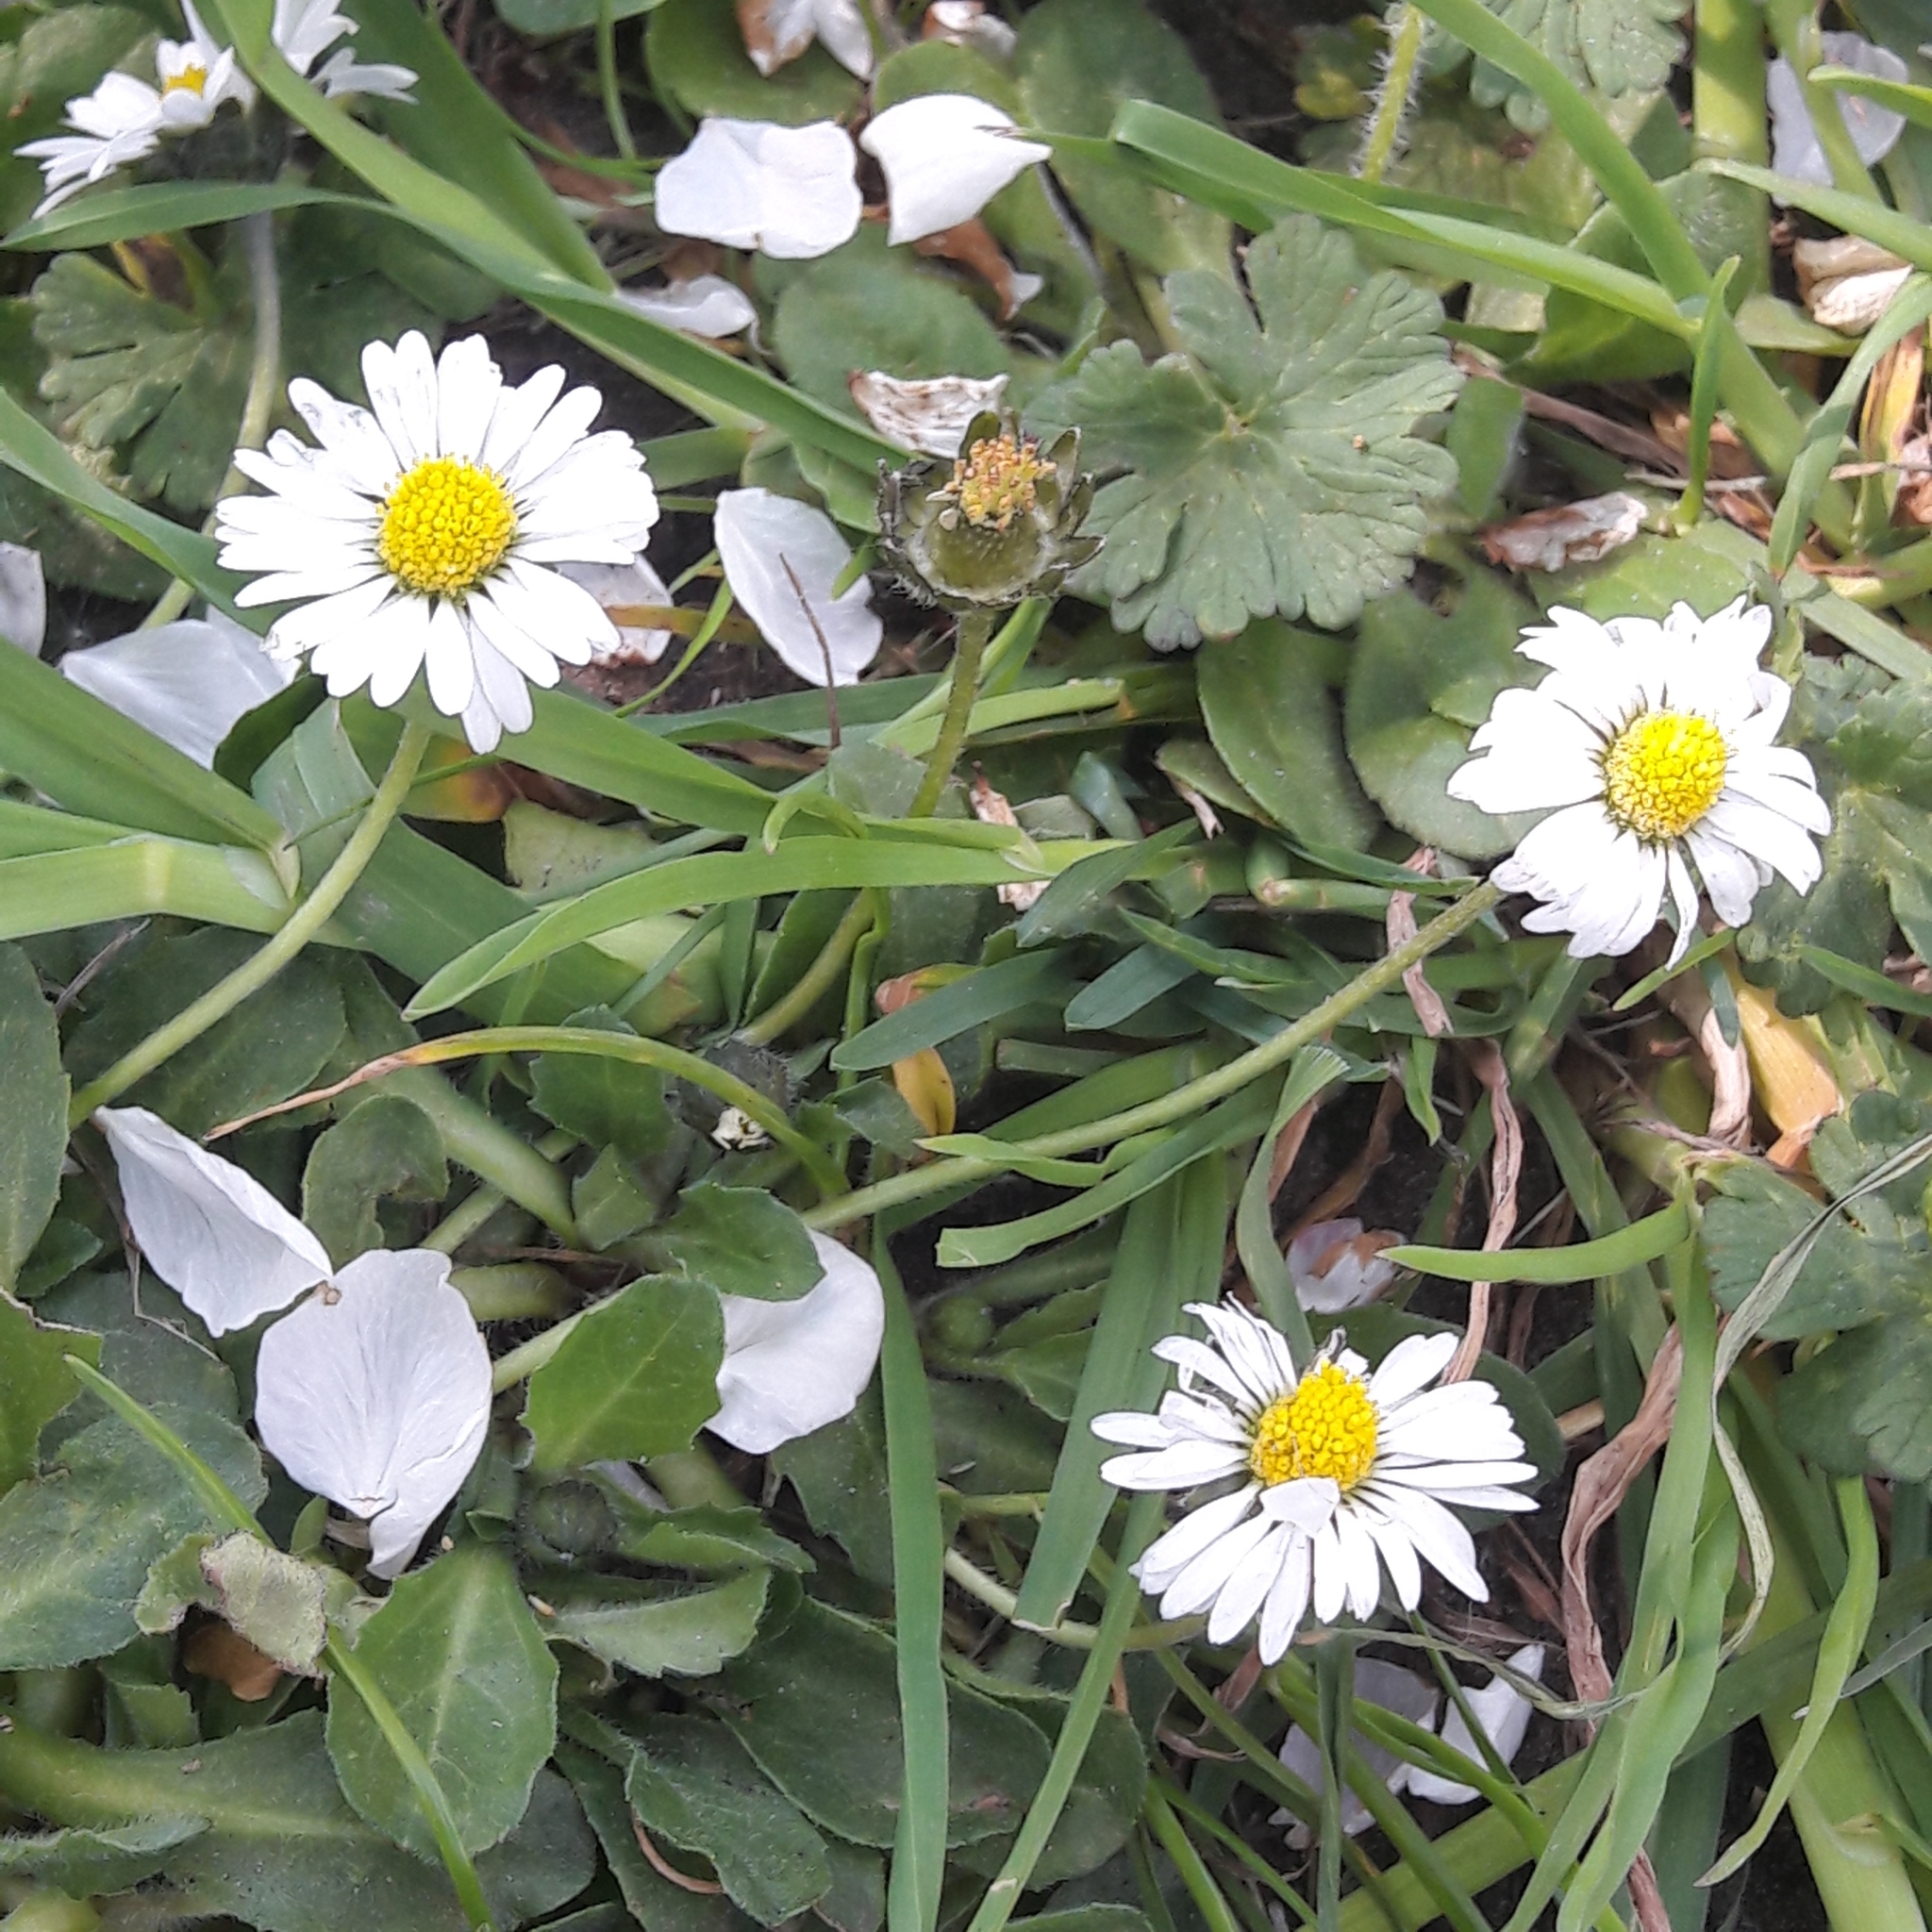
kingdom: Plantae
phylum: Tracheophyta
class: Magnoliopsida
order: Asterales
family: Asteraceae
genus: Bellis
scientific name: Bellis perennis
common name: Lawndaisy
